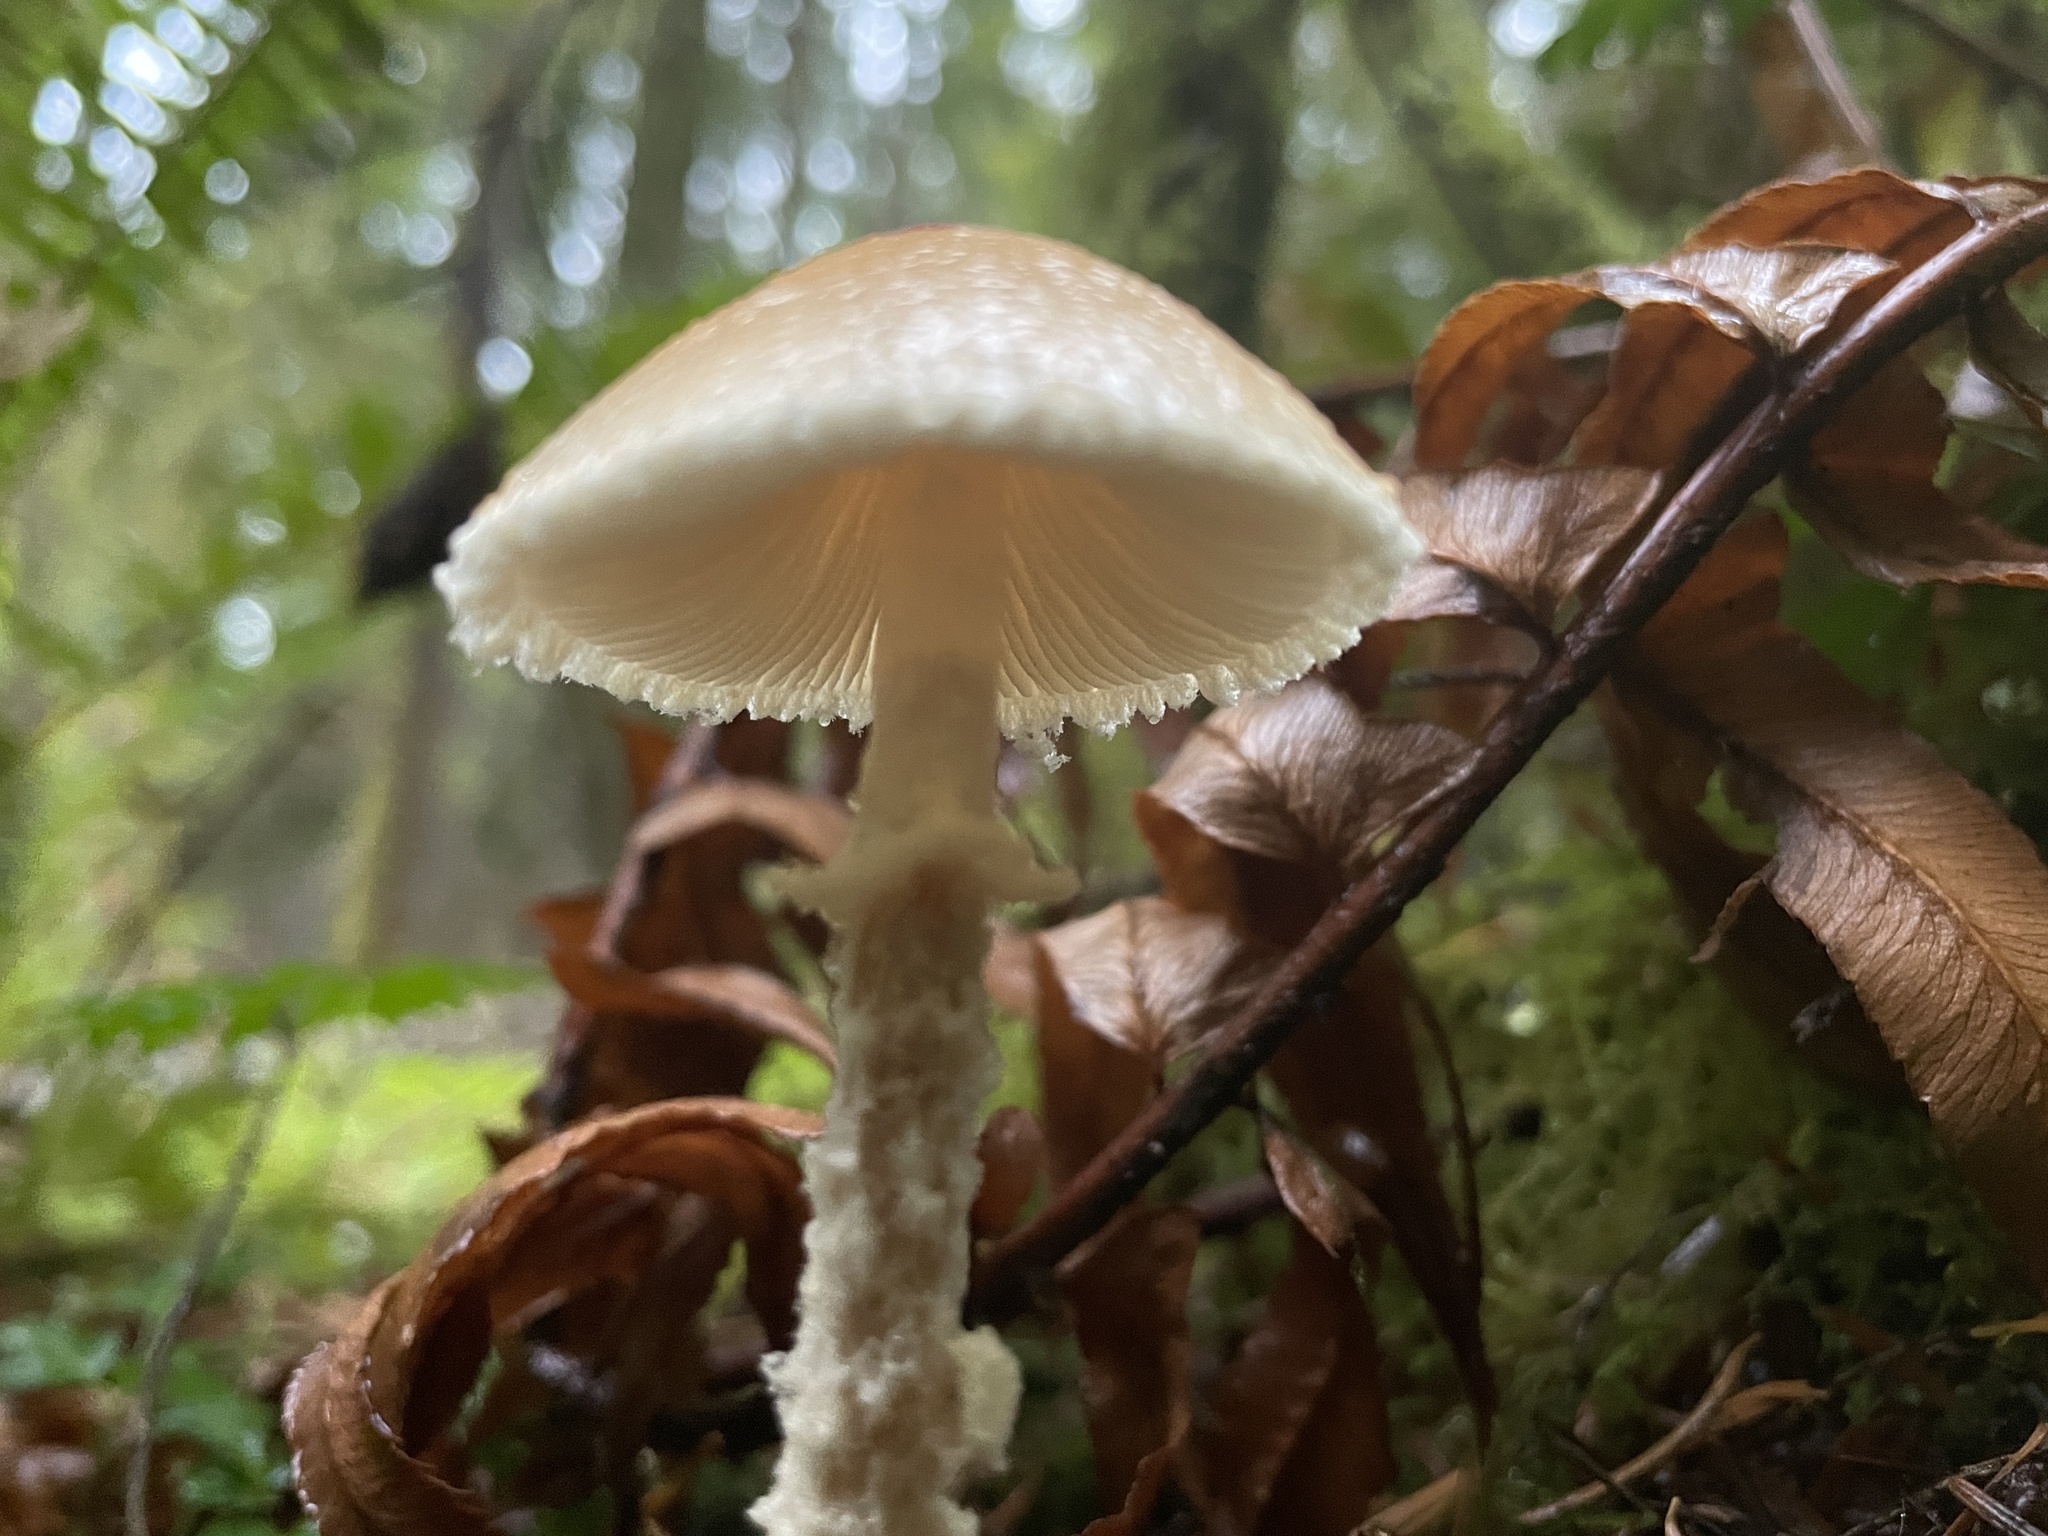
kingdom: Fungi
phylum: Basidiomycota
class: Agaricomycetes
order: Agaricales
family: Agaricaceae
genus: Lepiota
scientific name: Lepiota magnispora
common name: Yellowfoot dapperling
